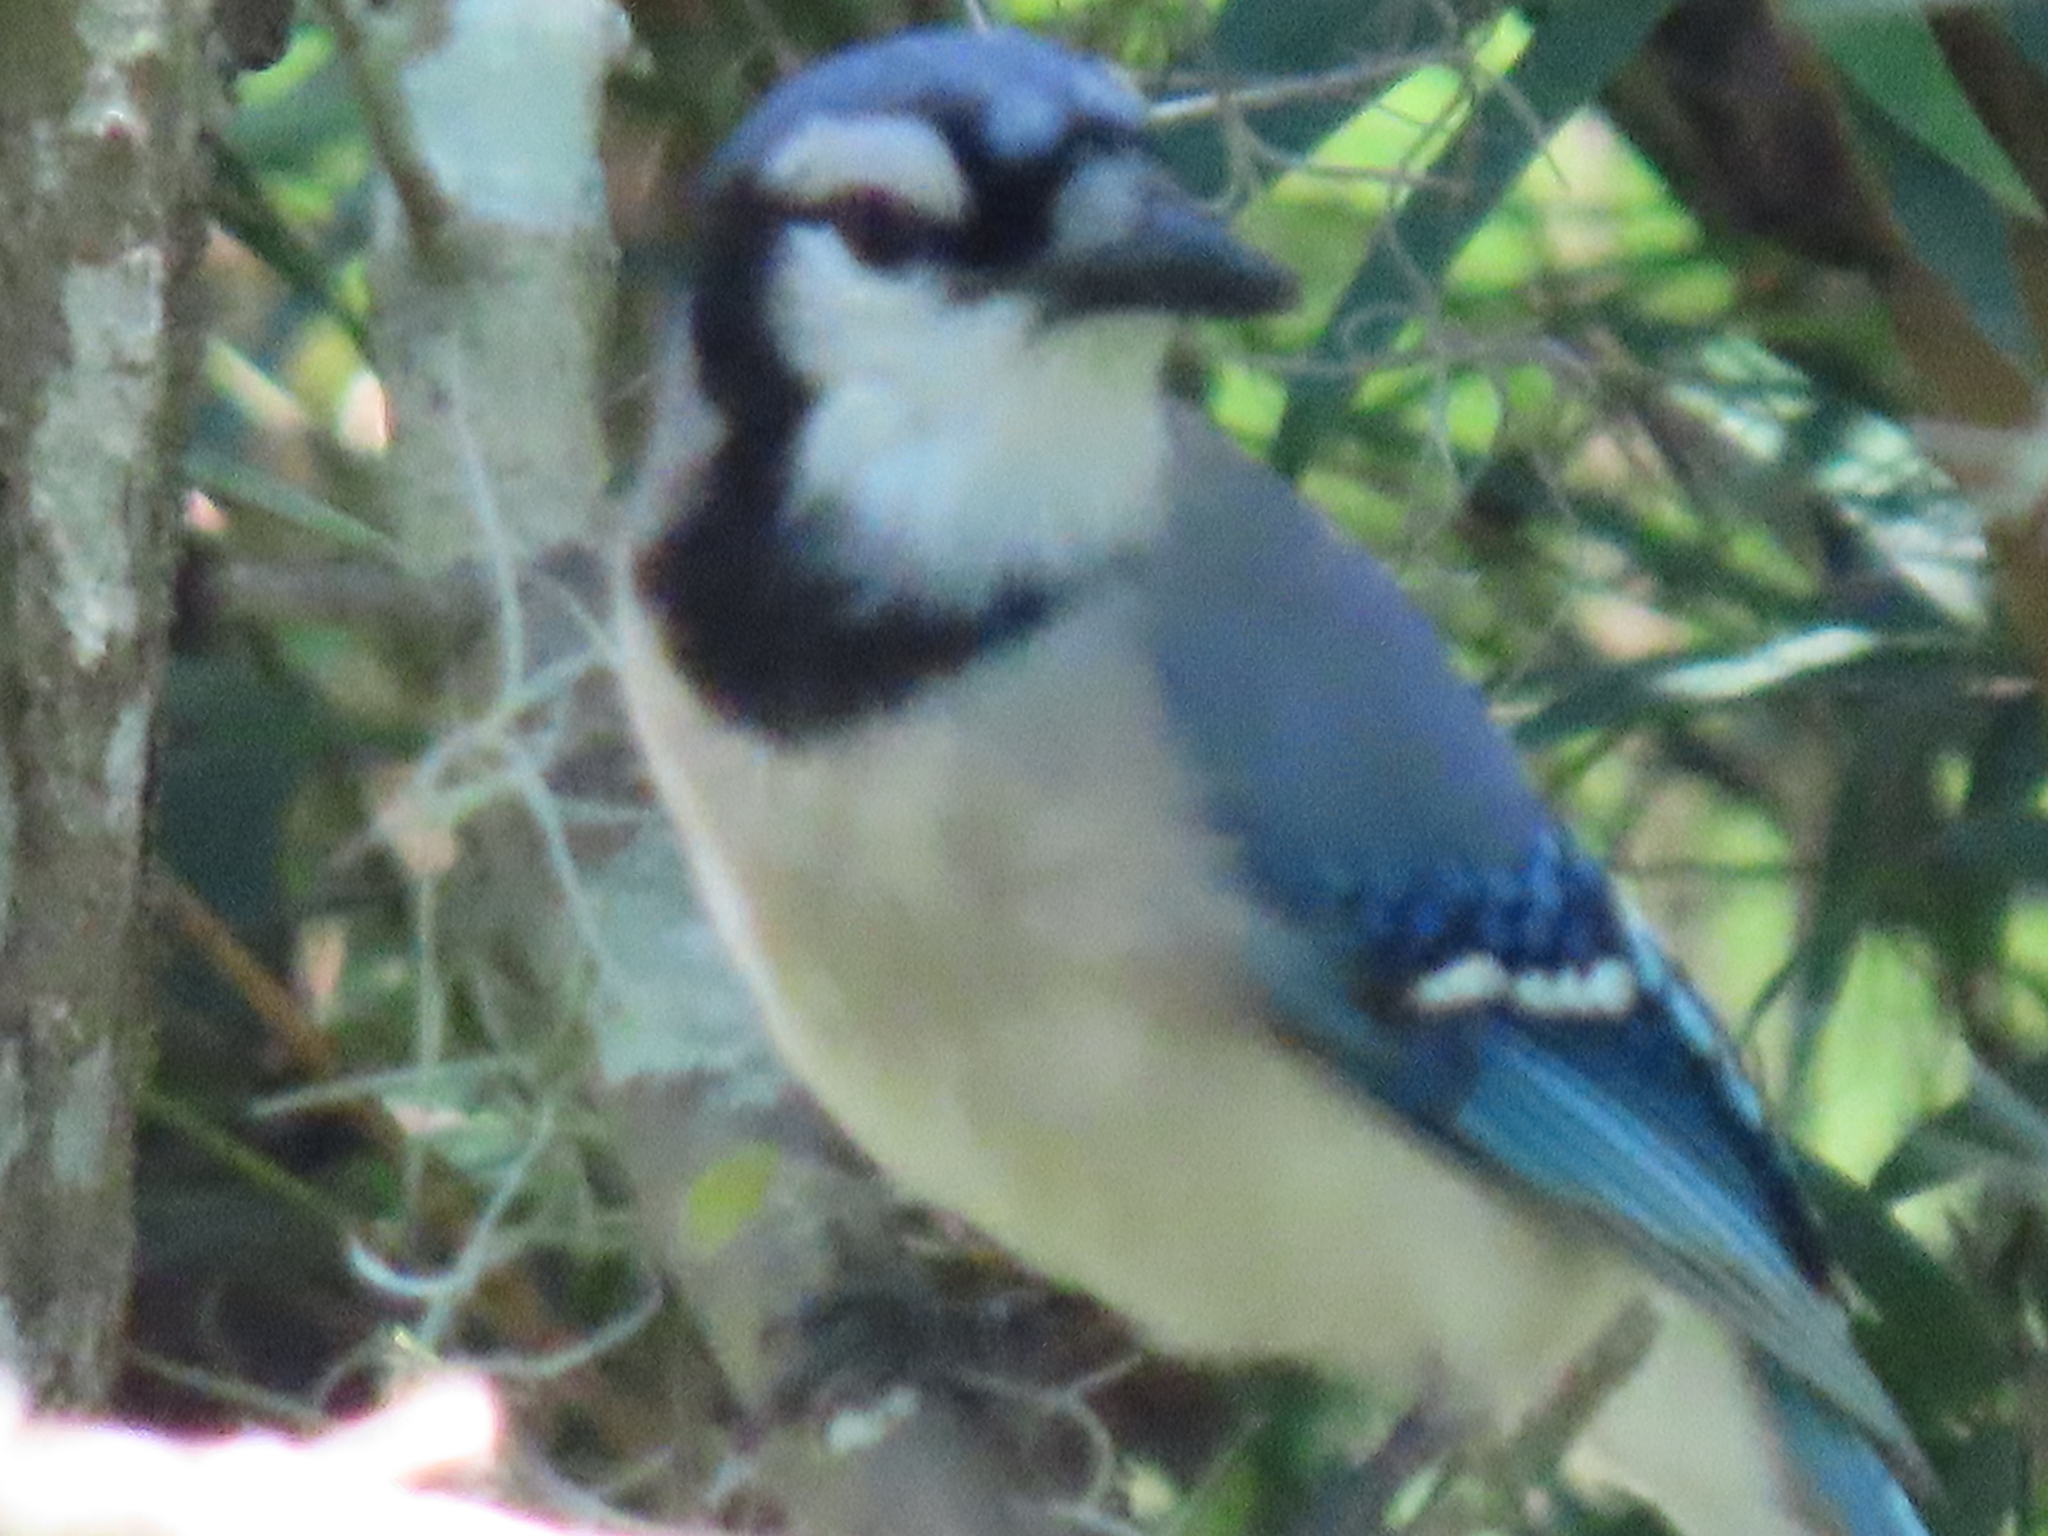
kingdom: Animalia
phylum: Chordata
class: Aves
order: Passeriformes
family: Corvidae
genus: Cyanocitta
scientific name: Cyanocitta cristata
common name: Blue jay
